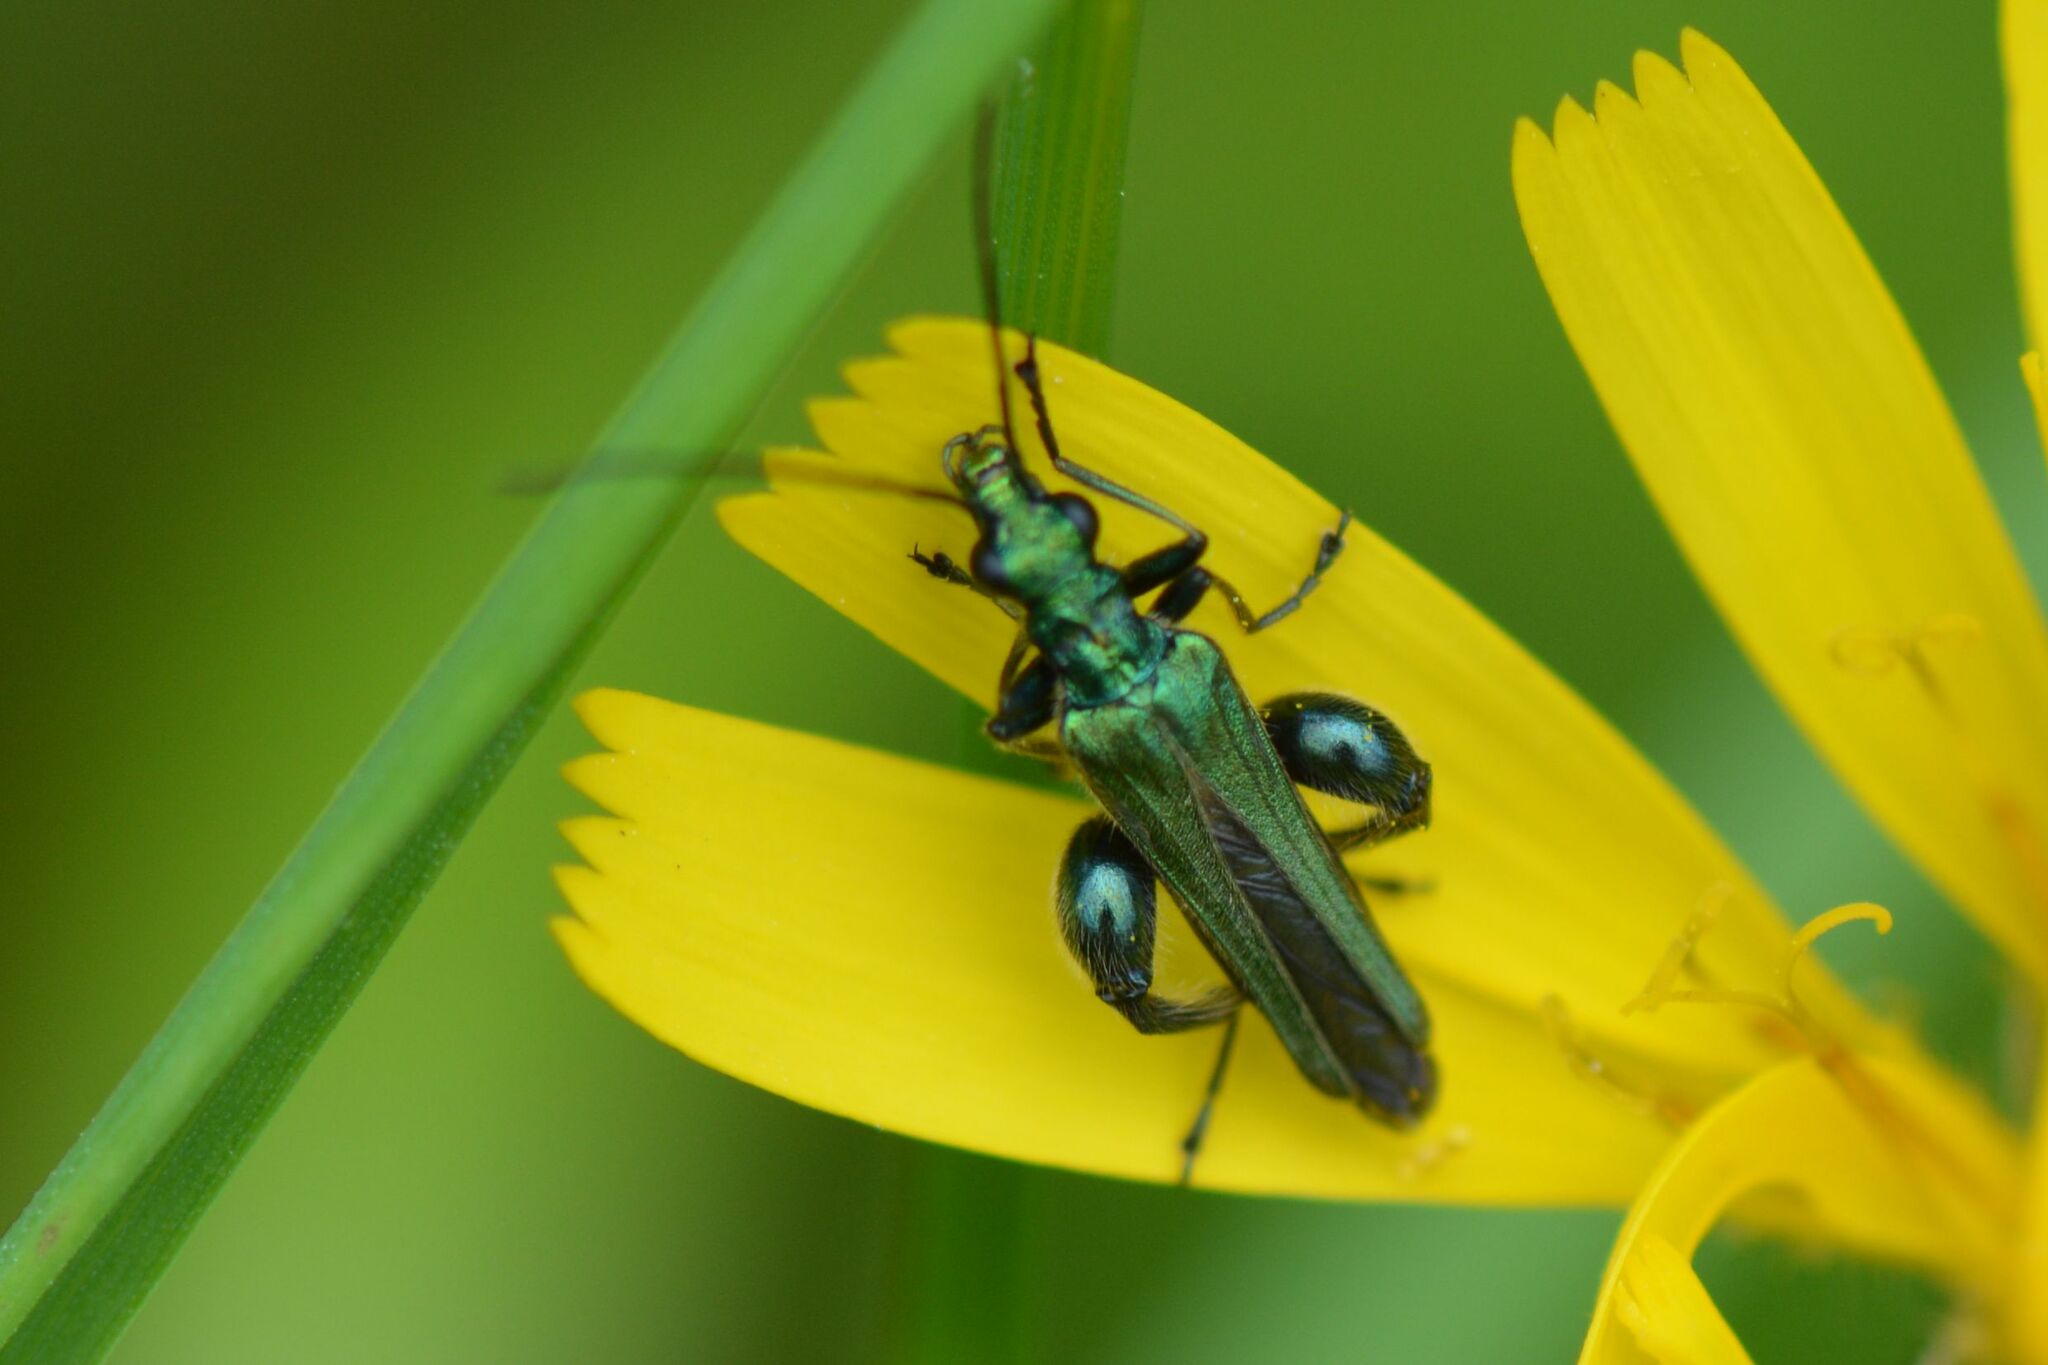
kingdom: Animalia
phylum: Arthropoda
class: Insecta
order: Coleoptera
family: Oedemeridae
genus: Oedemera
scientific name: Oedemera nobilis
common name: Swollen-thighed beetle
